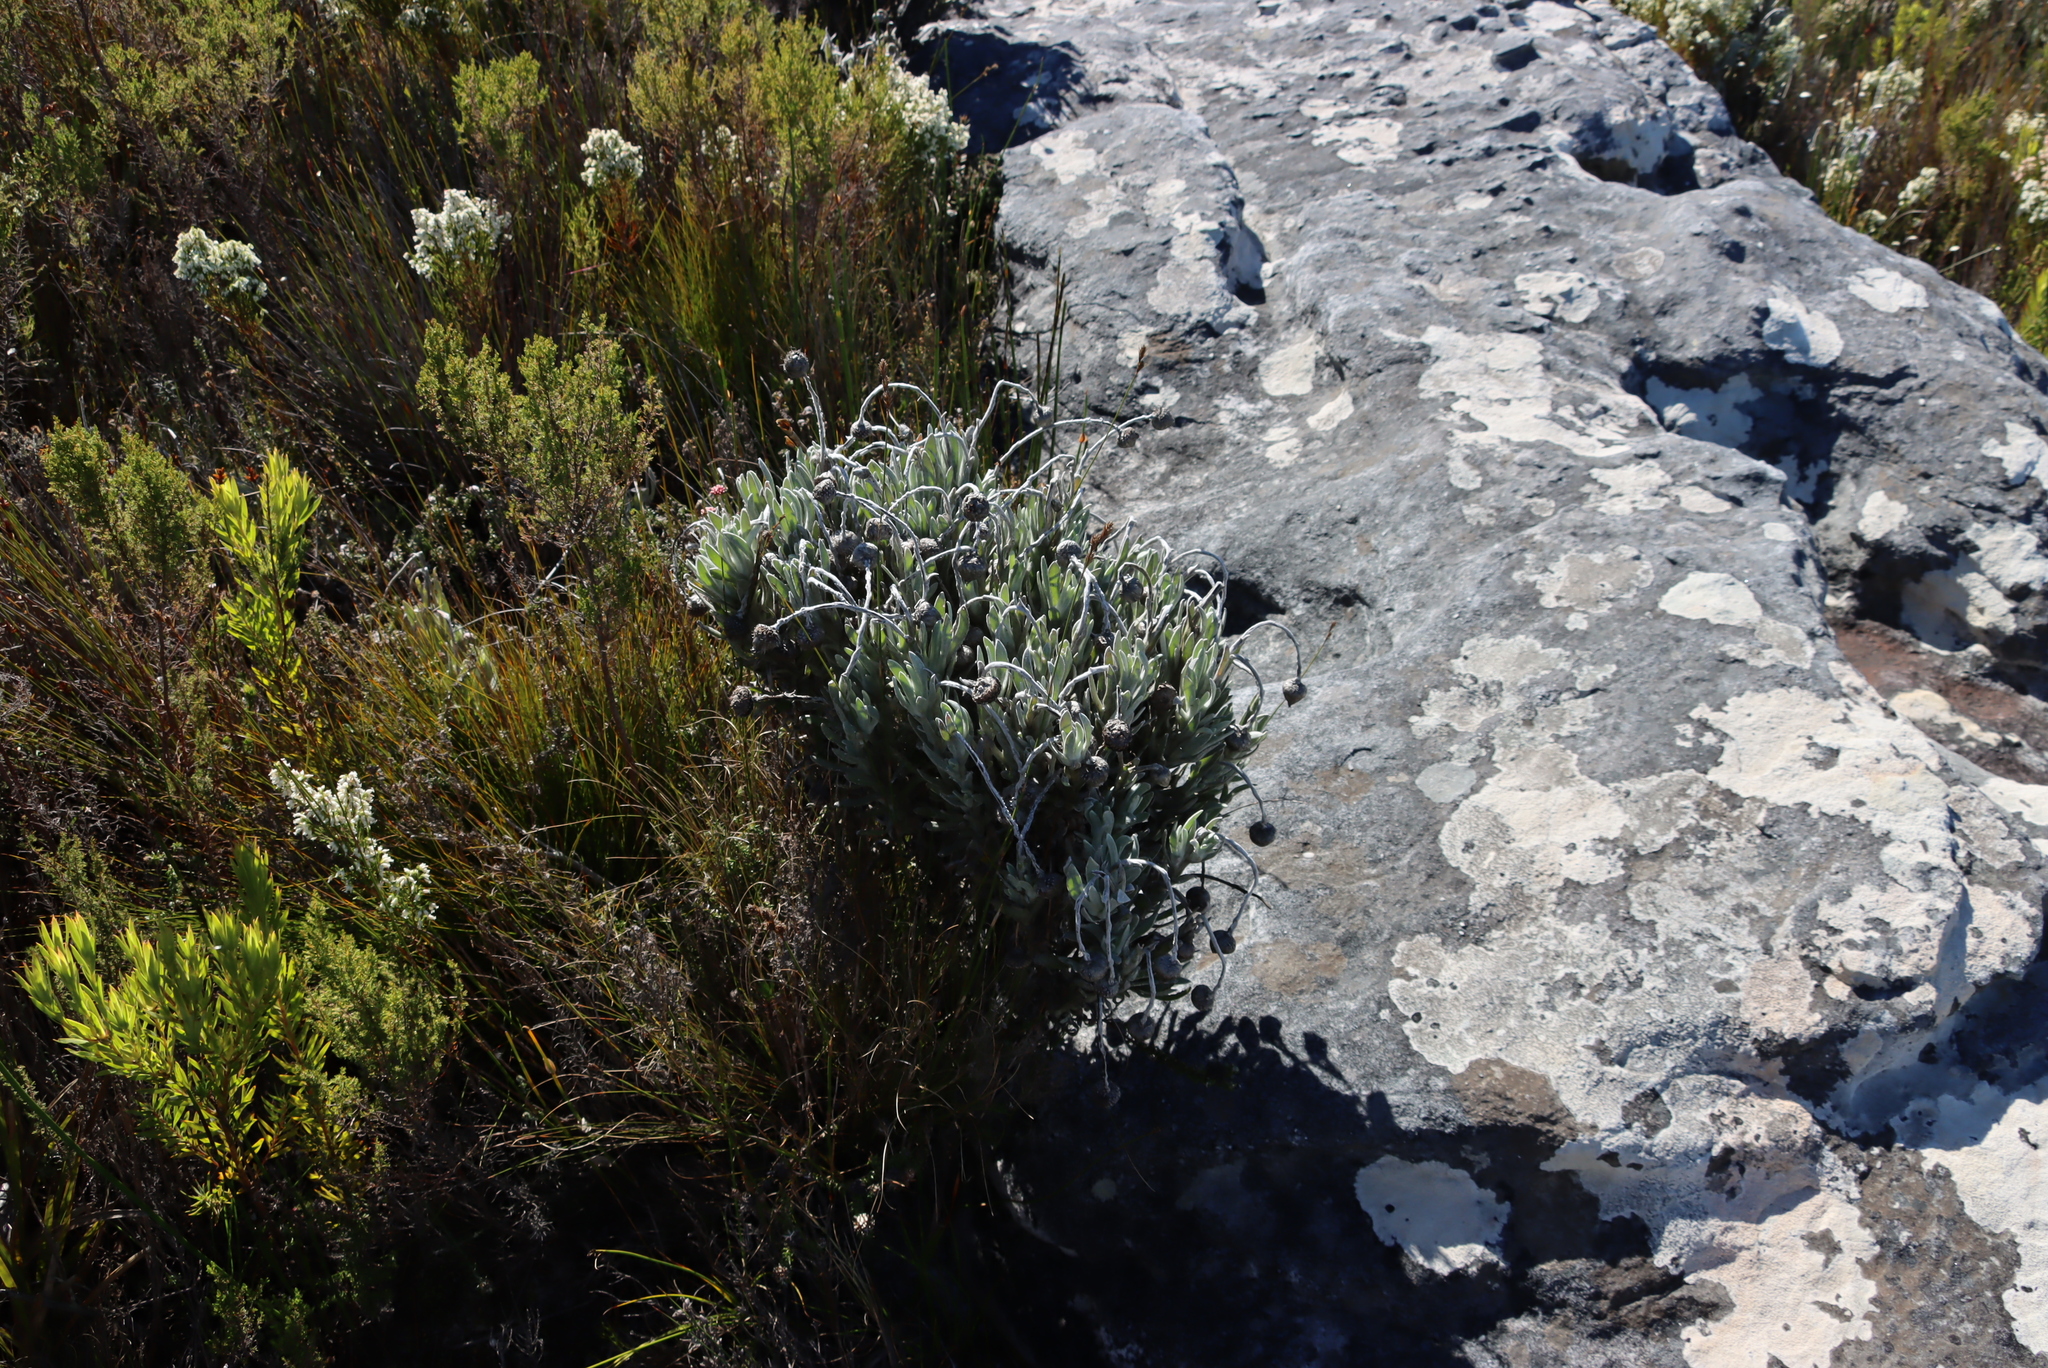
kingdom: Plantae
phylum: Tracheophyta
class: Magnoliopsida
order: Asterales
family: Asteraceae
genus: Syncarpha
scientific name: Syncarpha vestita
